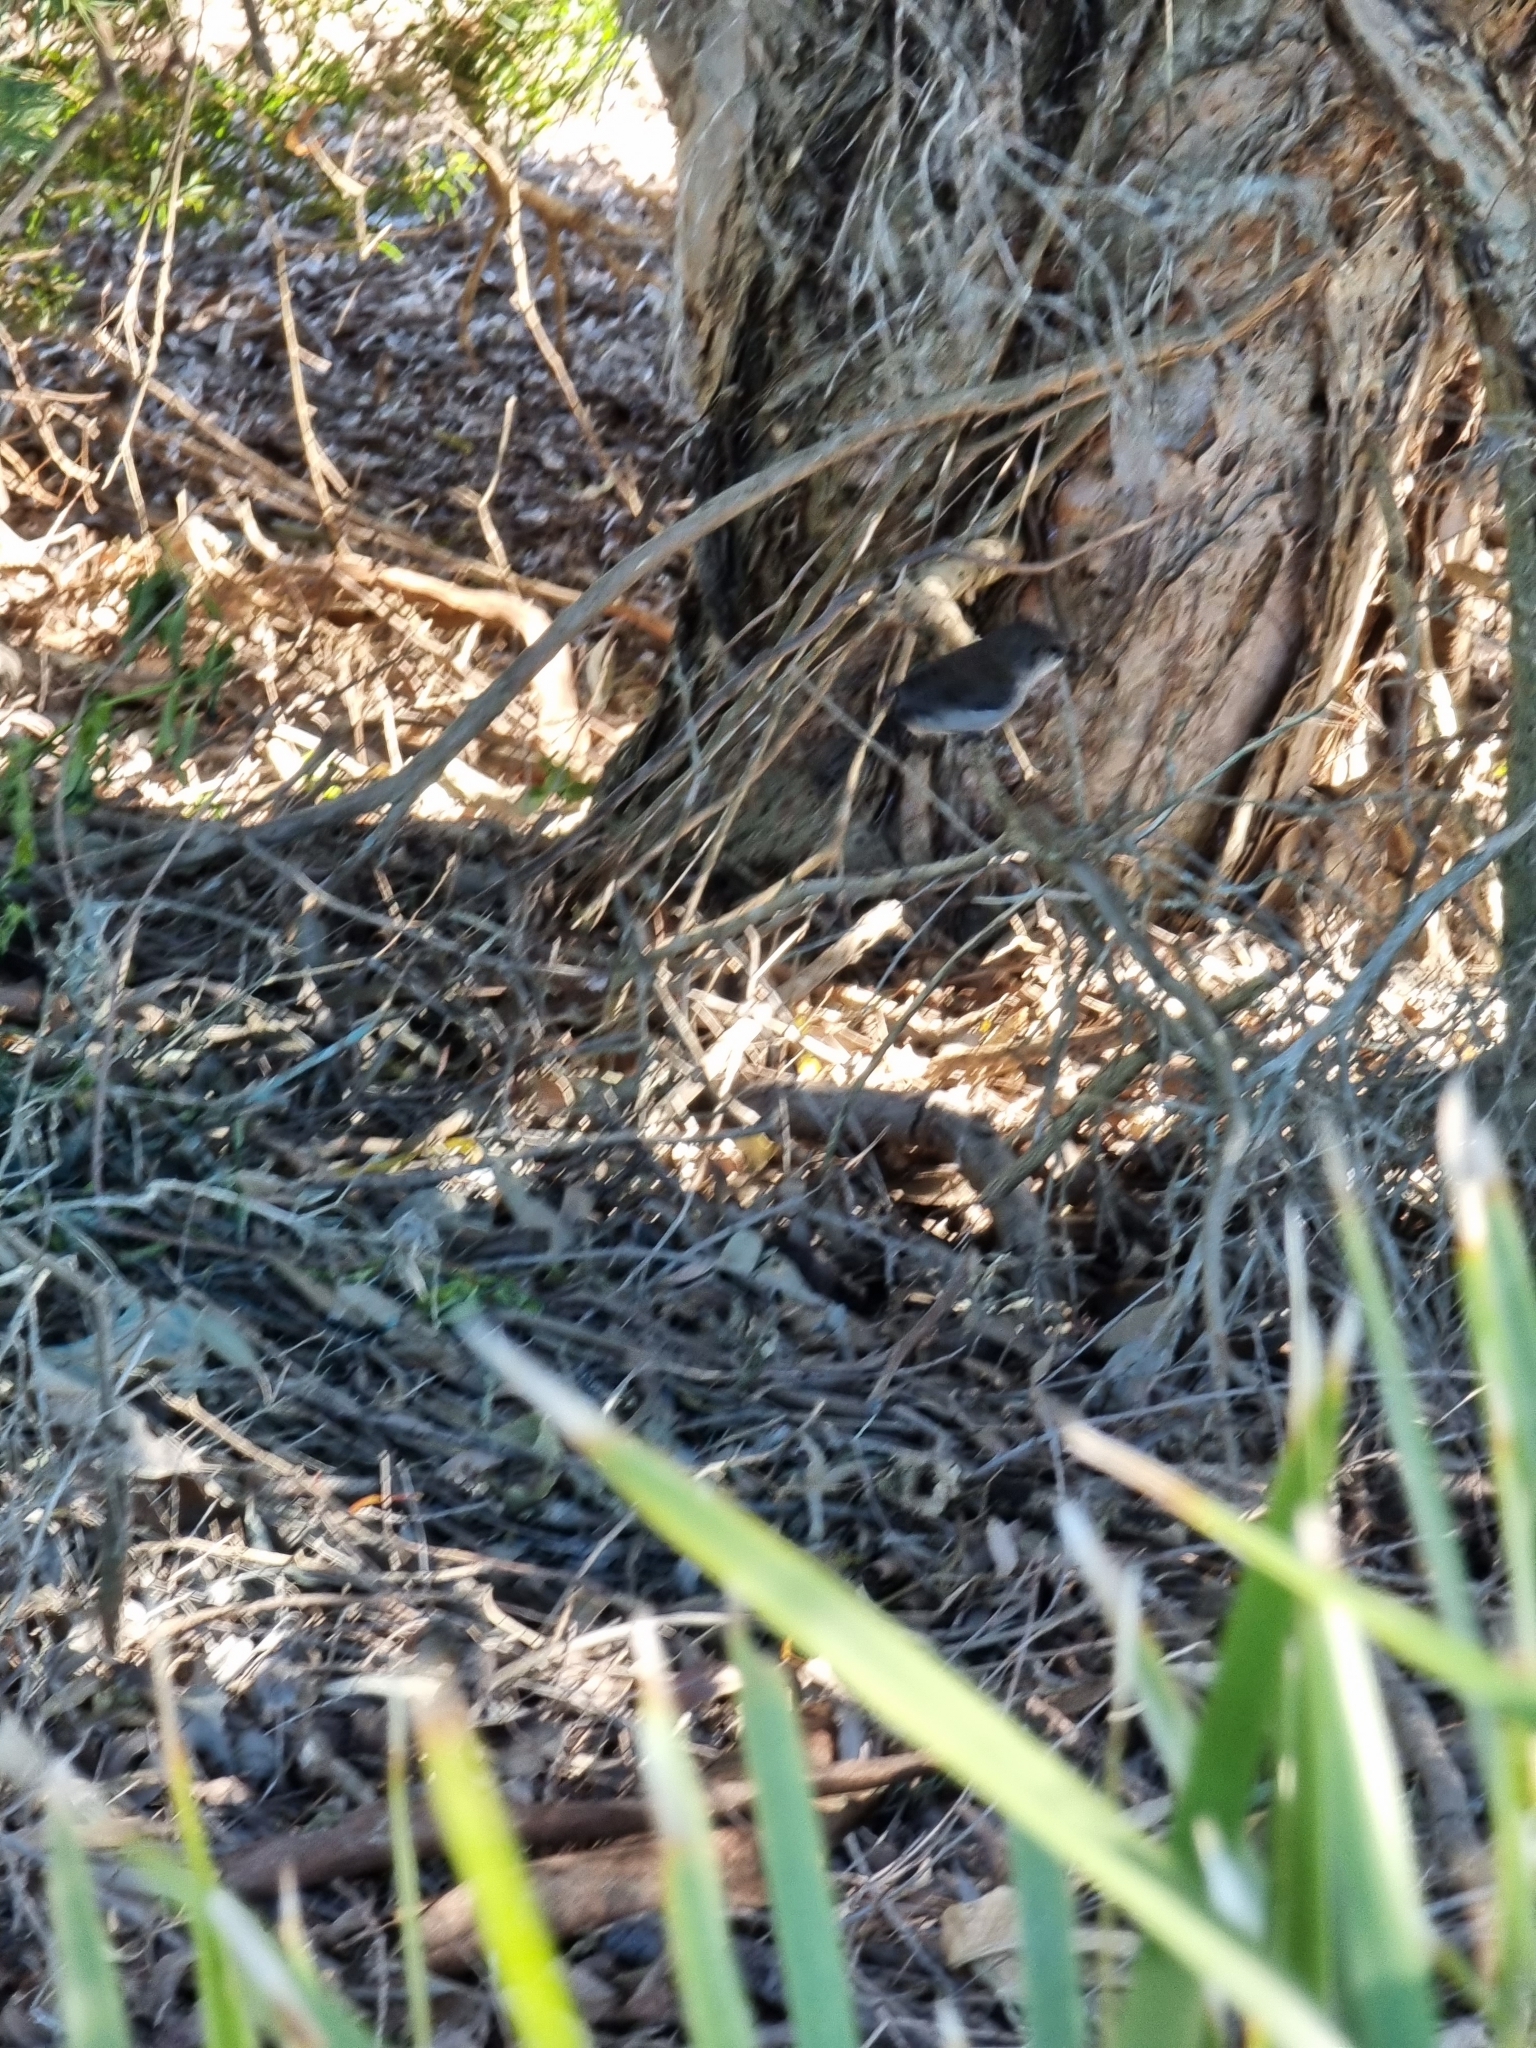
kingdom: Animalia
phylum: Chordata
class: Aves
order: Passeriformes
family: Maluridae
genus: Malurus
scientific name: Malurus cyaneus
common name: Superb fairywren
